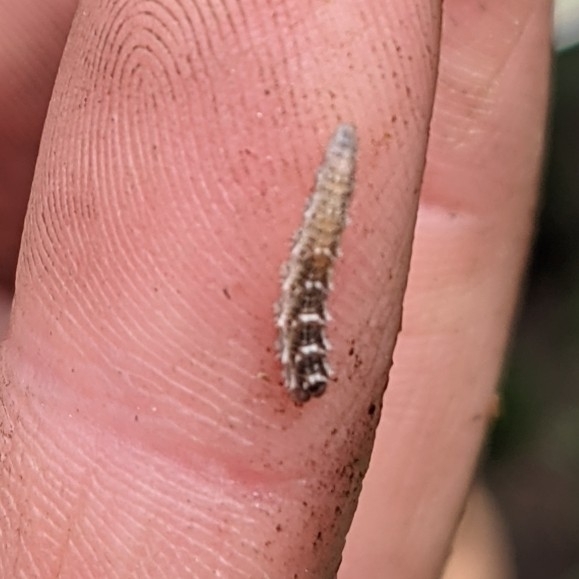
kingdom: Animalia
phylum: Arthropoda
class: Insecta
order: Diptera
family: Syrphidae
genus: Eupeodes
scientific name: Eupeodes
